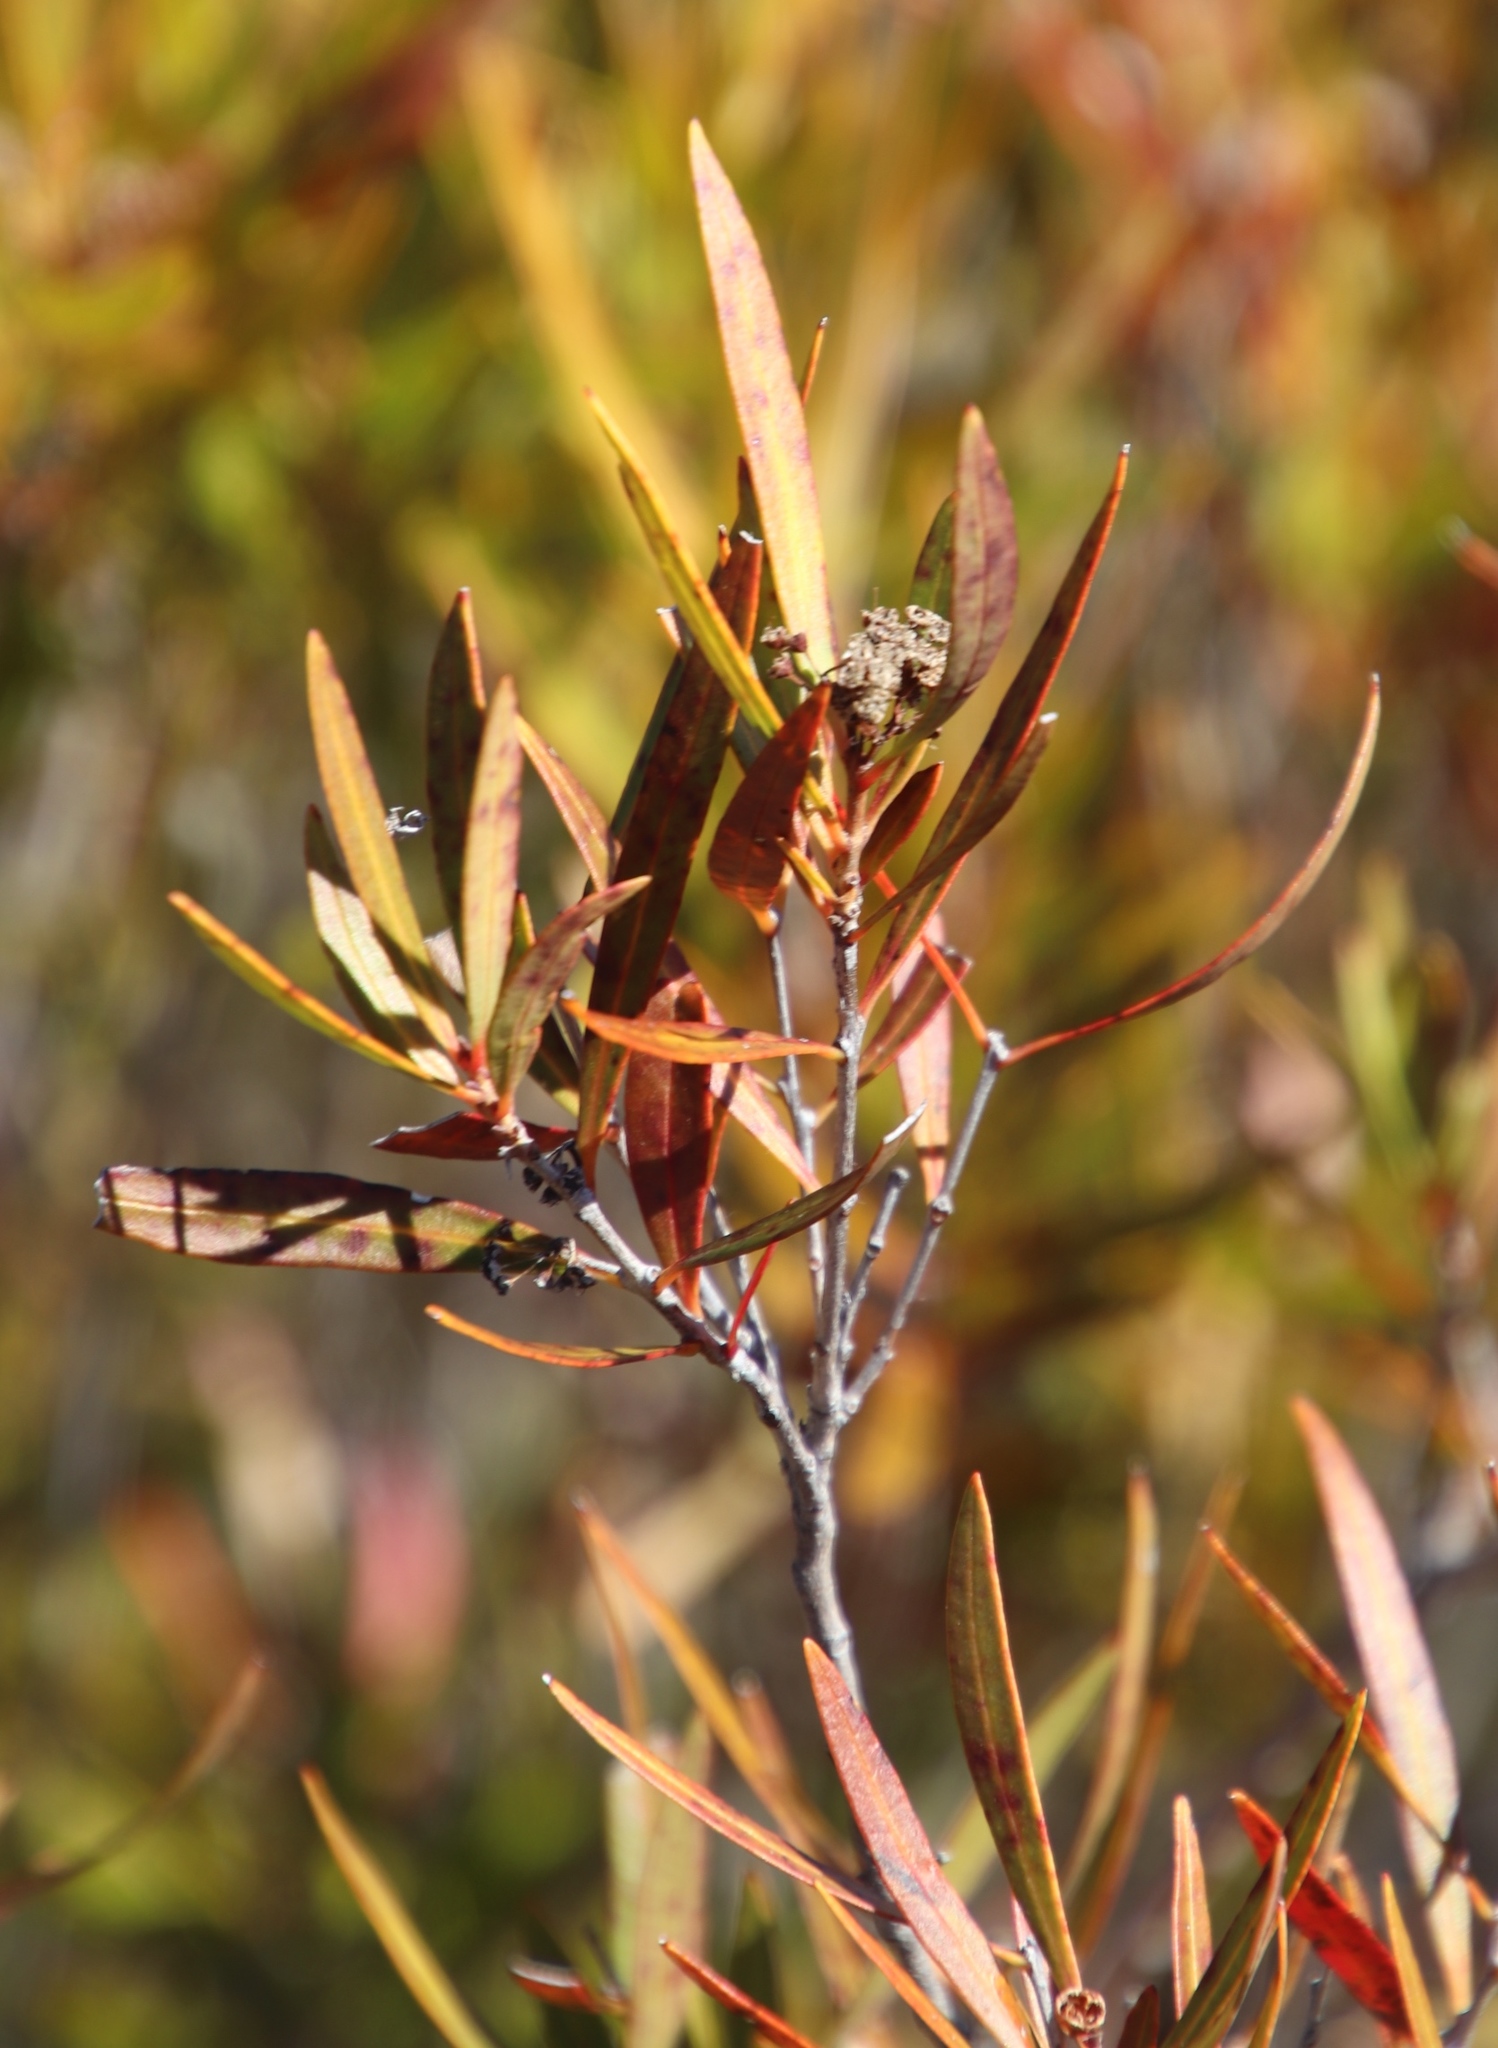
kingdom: Plantae
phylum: Tracheophyta
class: Magnoliopsida
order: Myrtales
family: Myrtaceae
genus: Callistemon
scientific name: Callistemon lanceolatus
